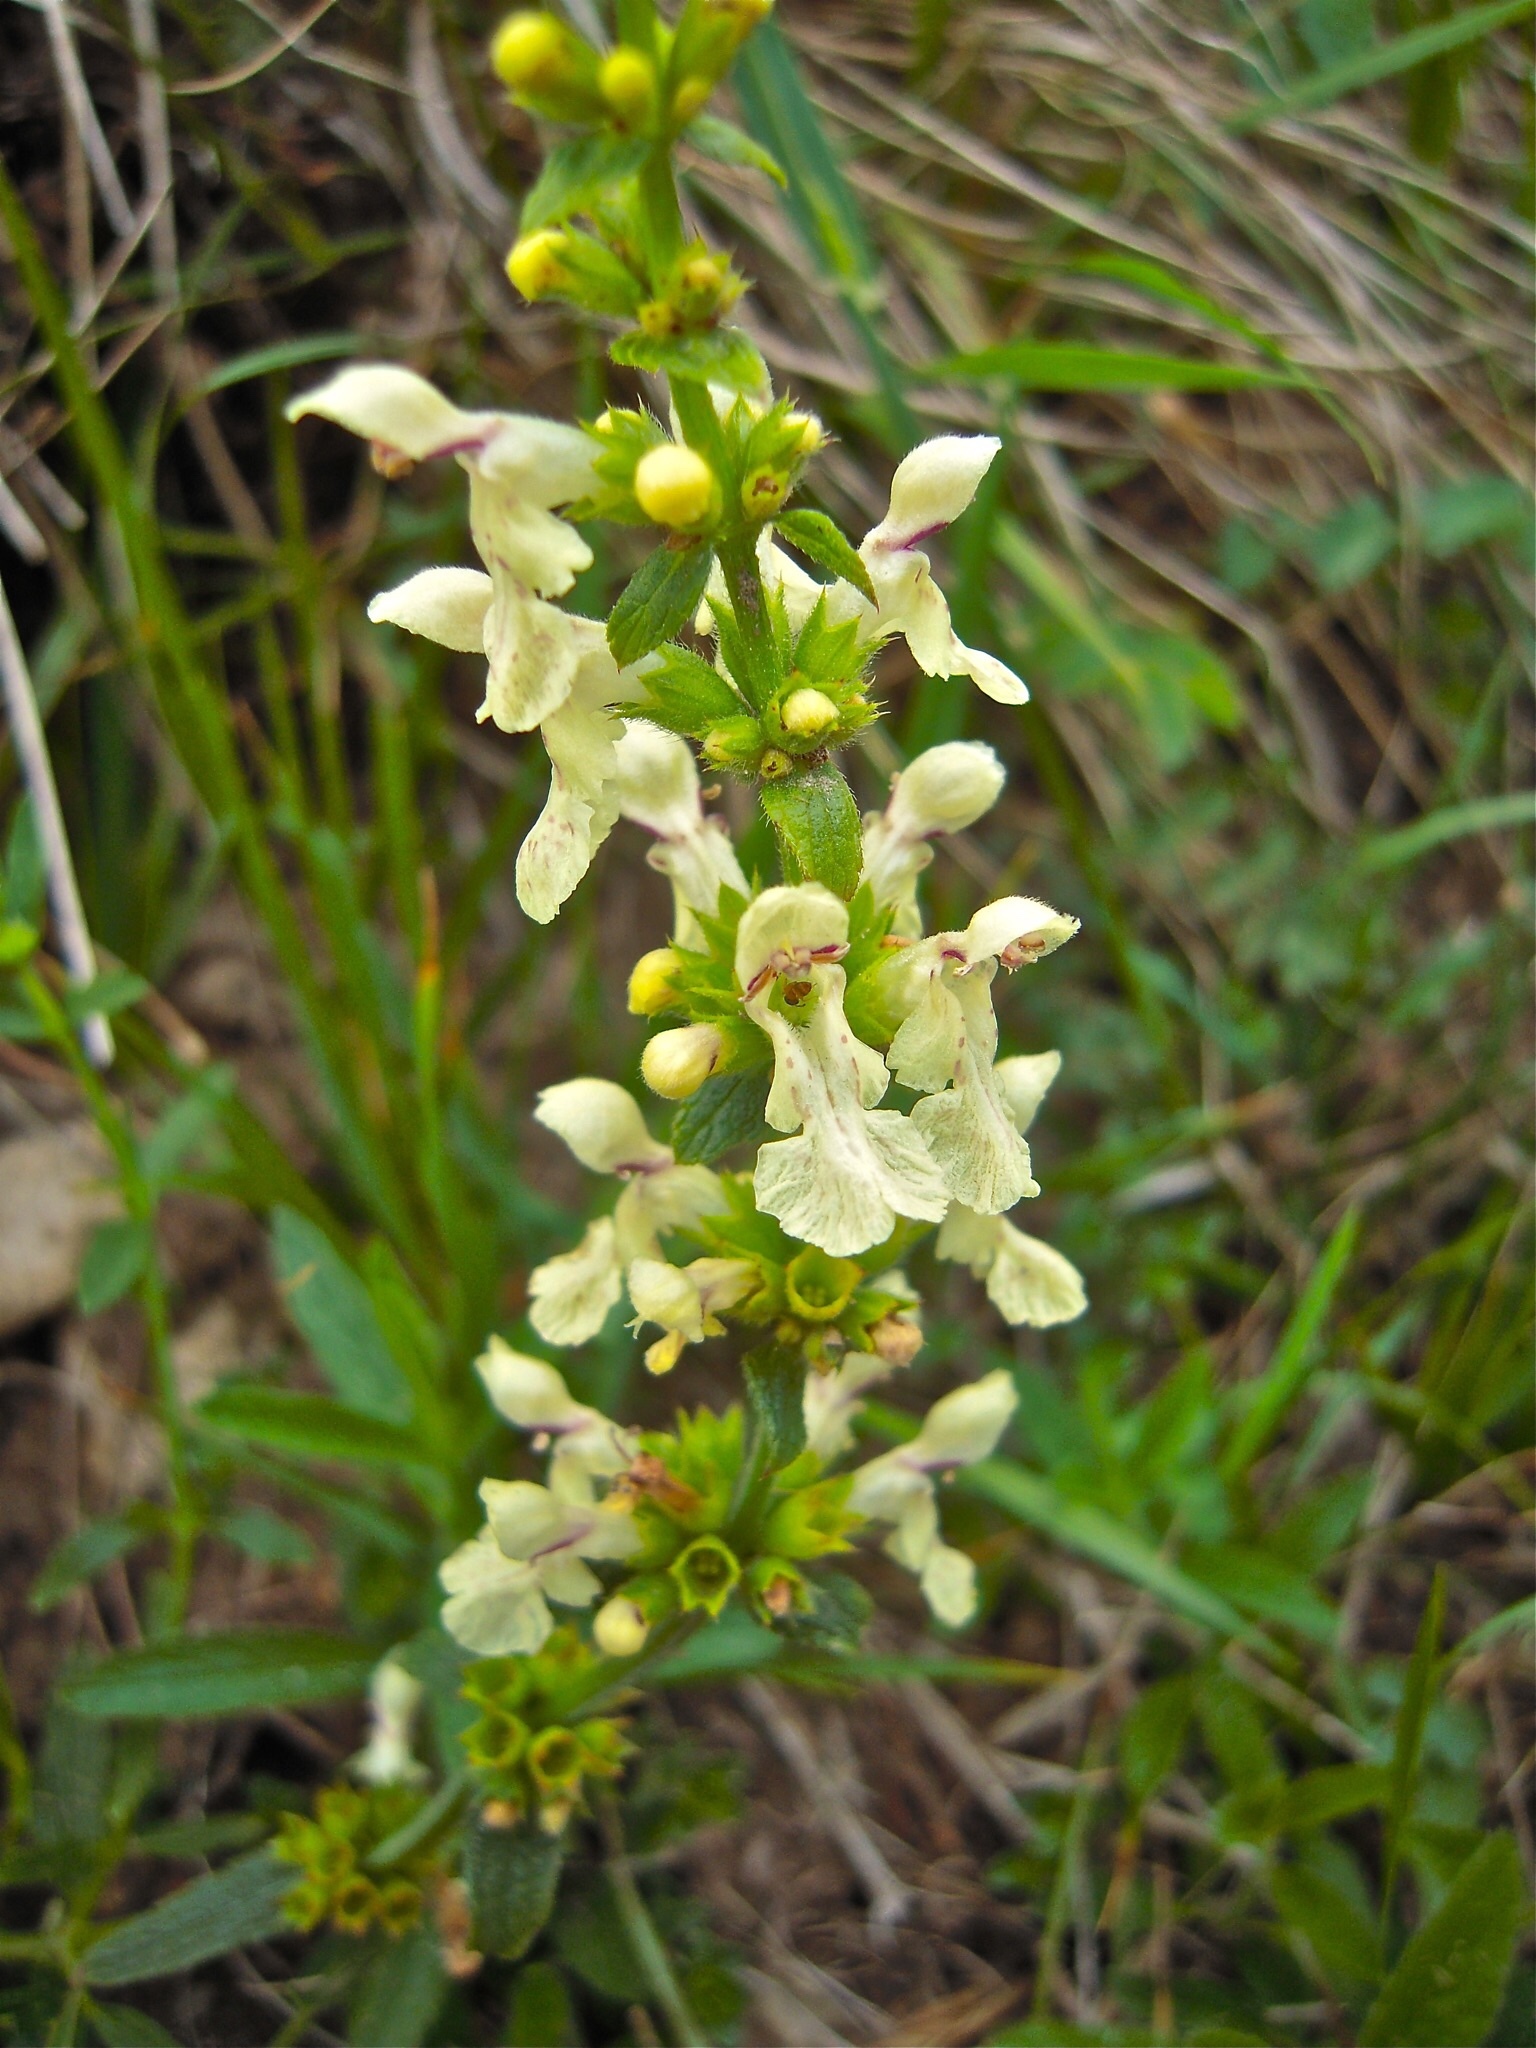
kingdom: Plantae
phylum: Tracheophyta
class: Magnoliopsida
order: Lamiales
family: Lamiaceae
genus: Stachys
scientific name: Stachys recta
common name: Perennial yellow-woundwort
